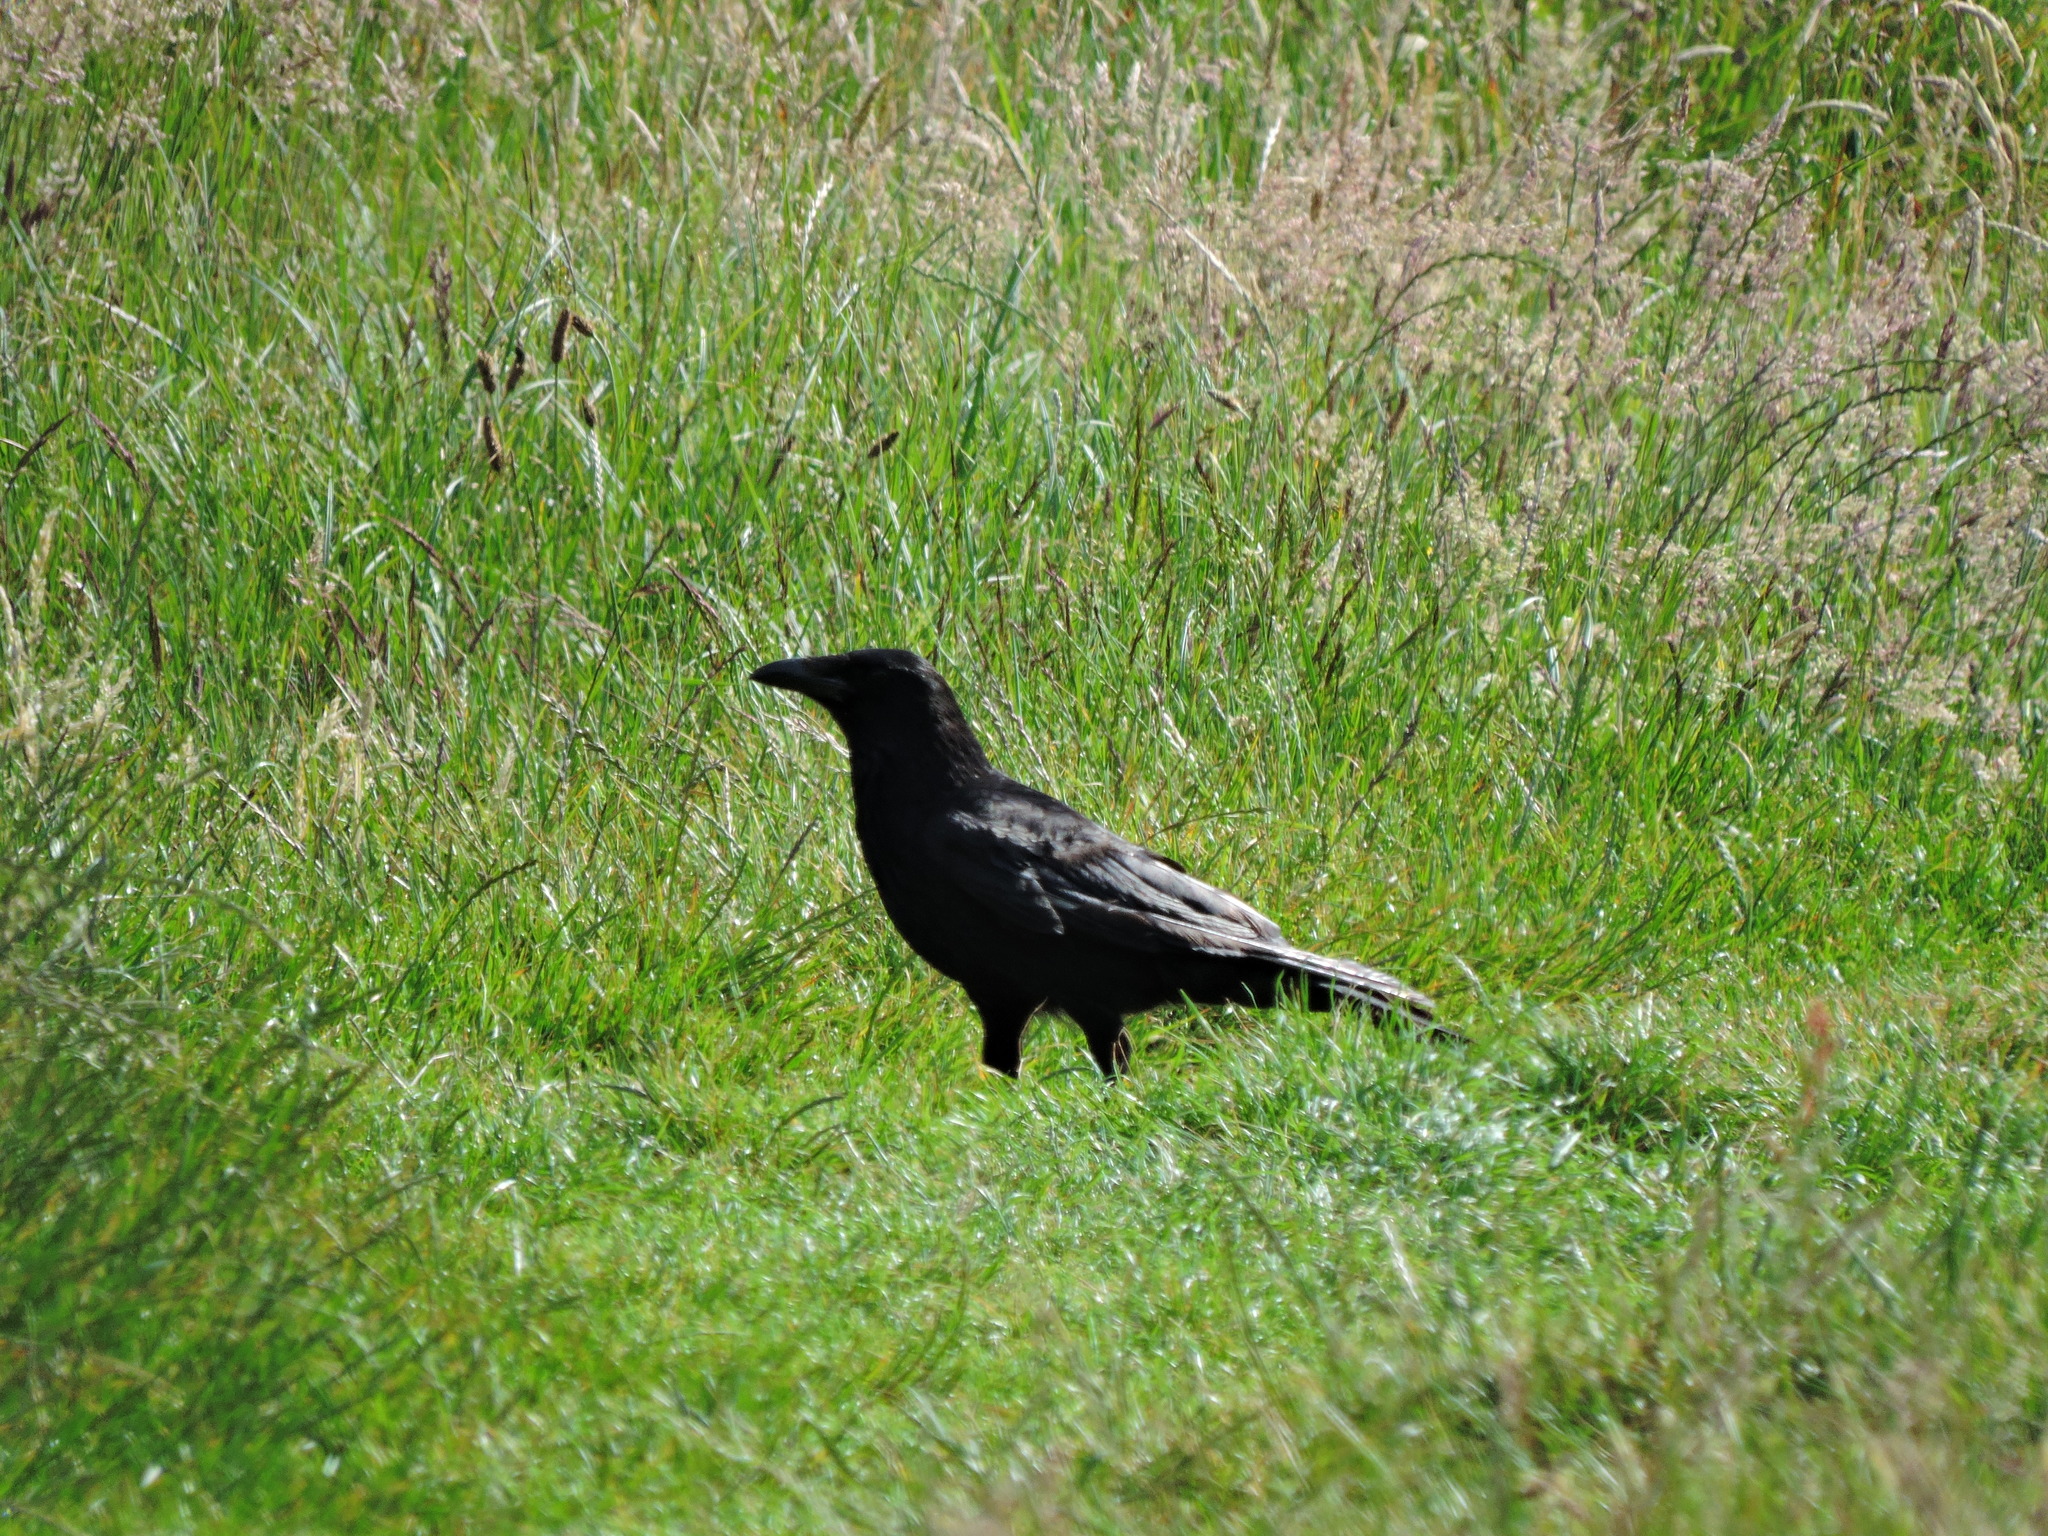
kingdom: Animalia
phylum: Chordata
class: Aves
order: Passeriformes
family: Corvidae
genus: Corvus
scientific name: Corvus corone
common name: Carrion crow
